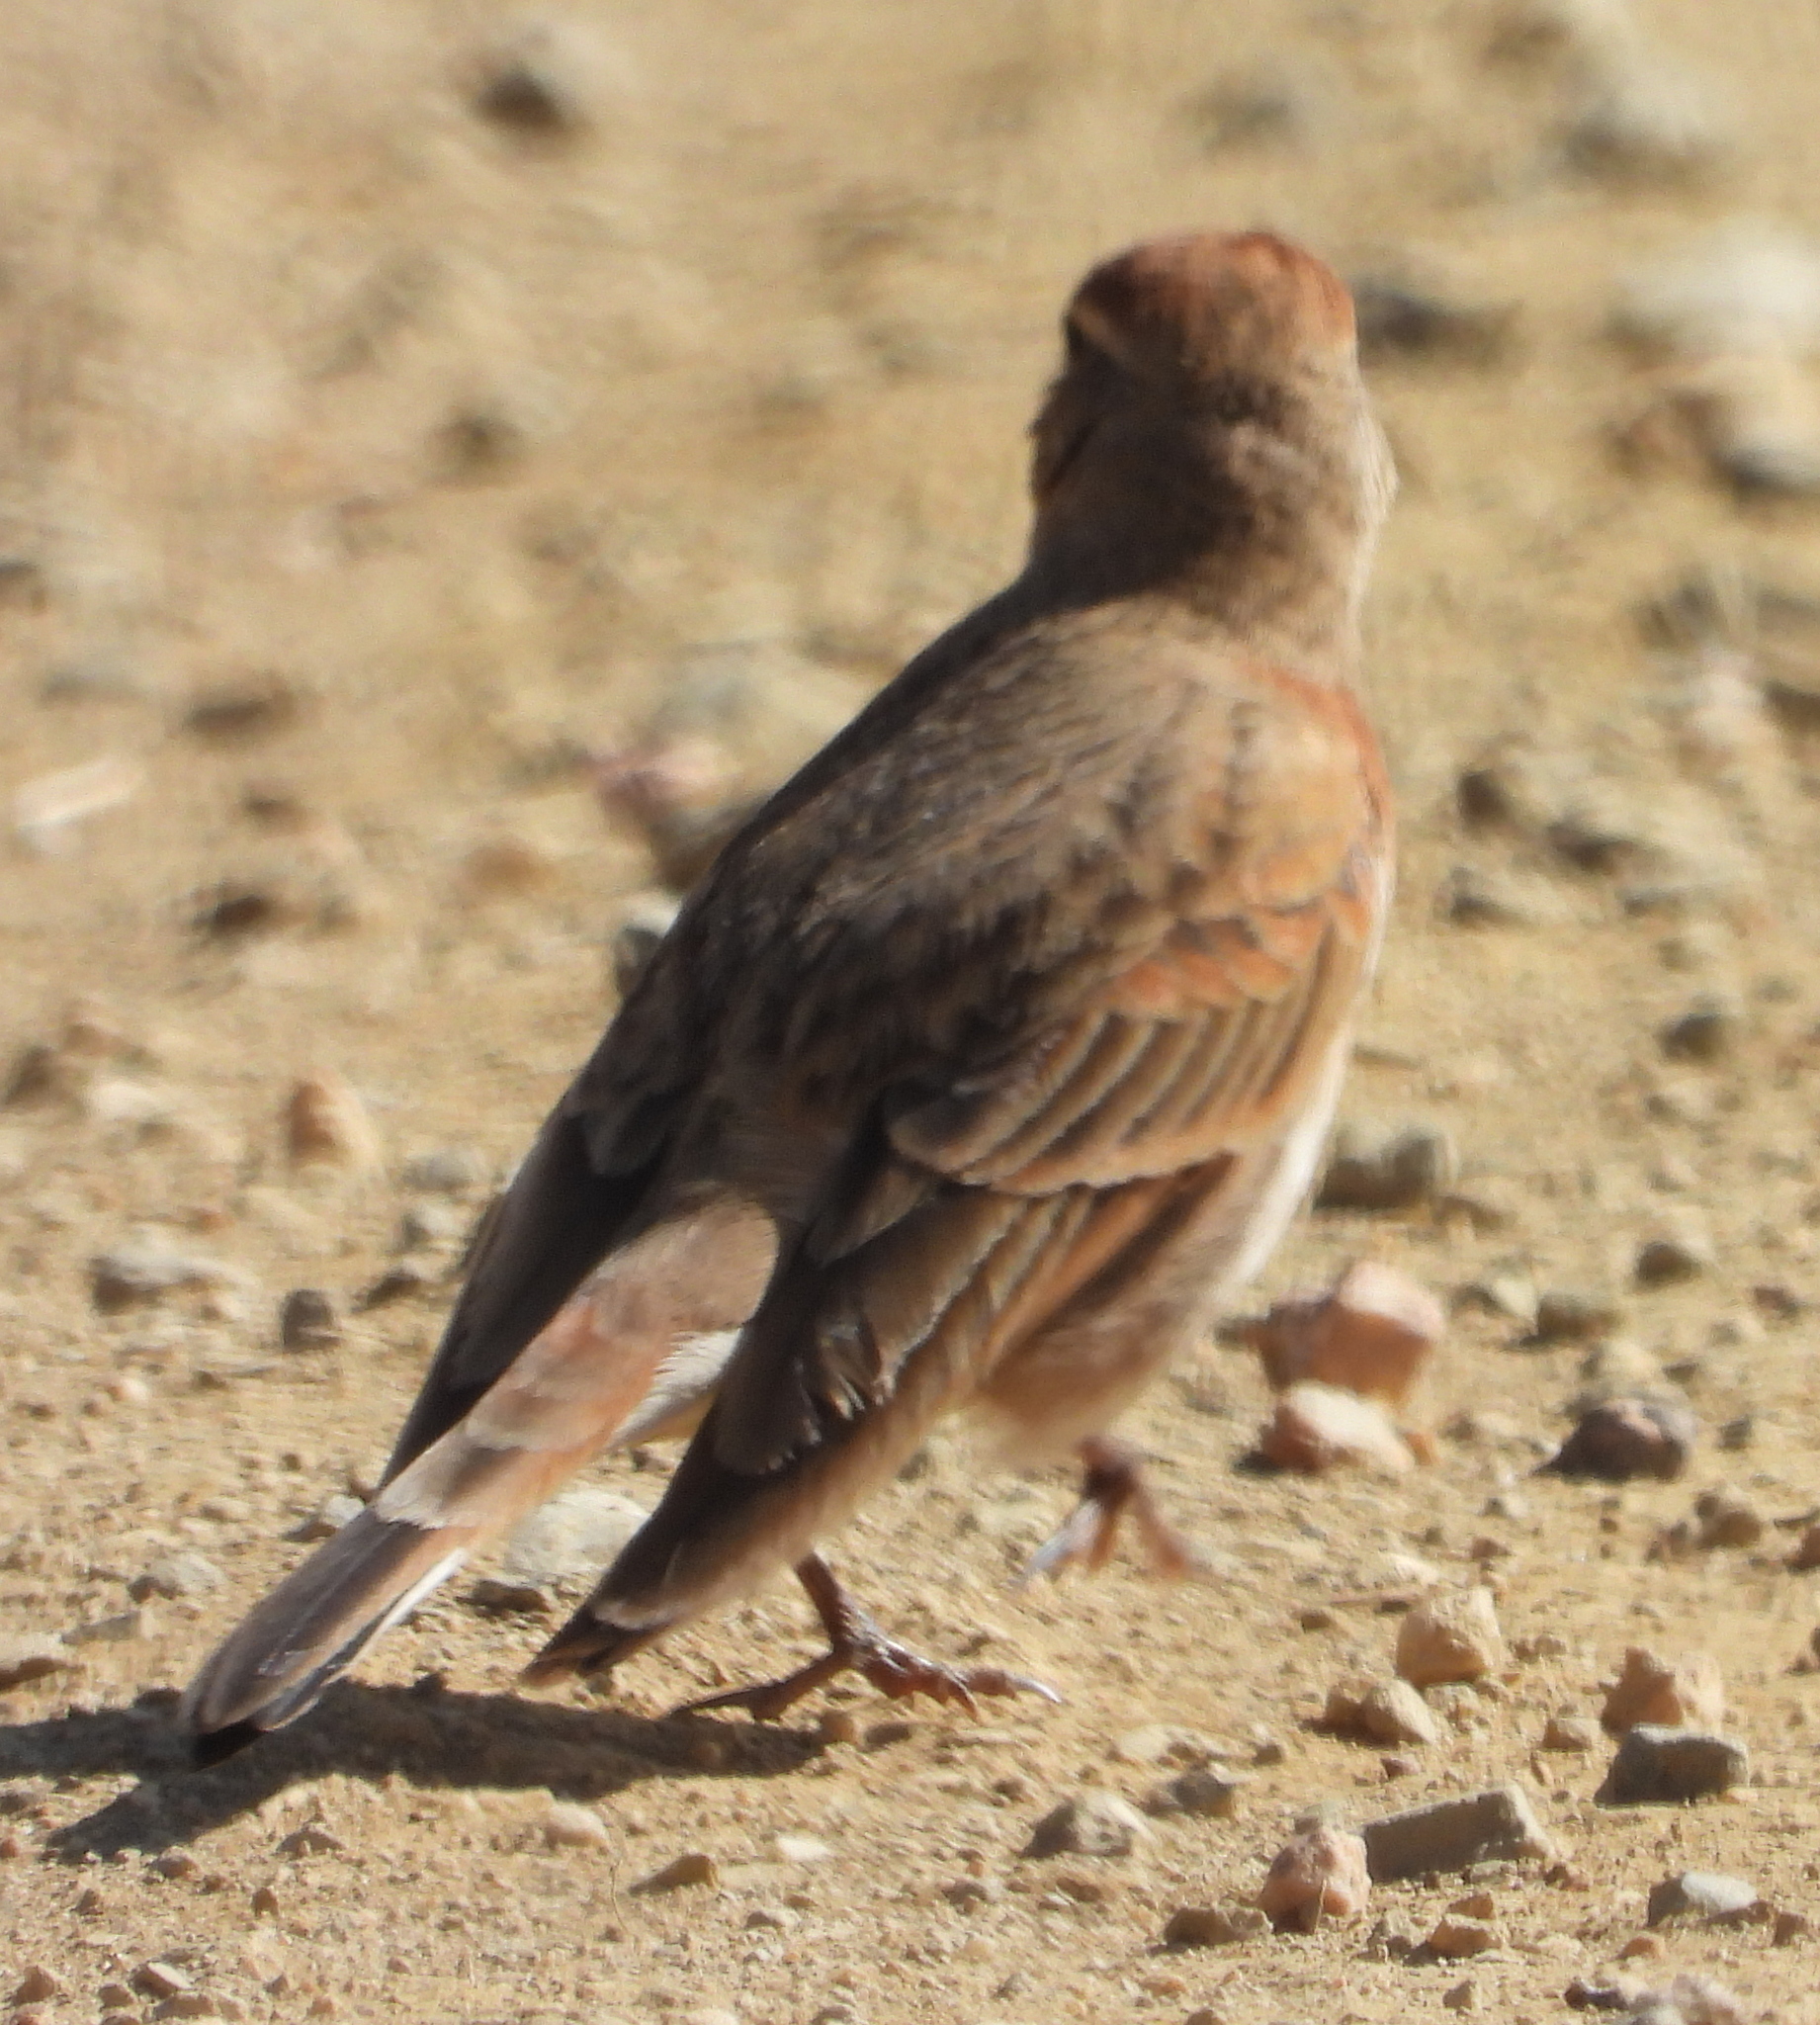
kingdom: Animalia
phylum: Chordata
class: Aves
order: Passeriformes
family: Alaudidae
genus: Calandrella
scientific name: Calandrella cinerea
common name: Red-capped lark
